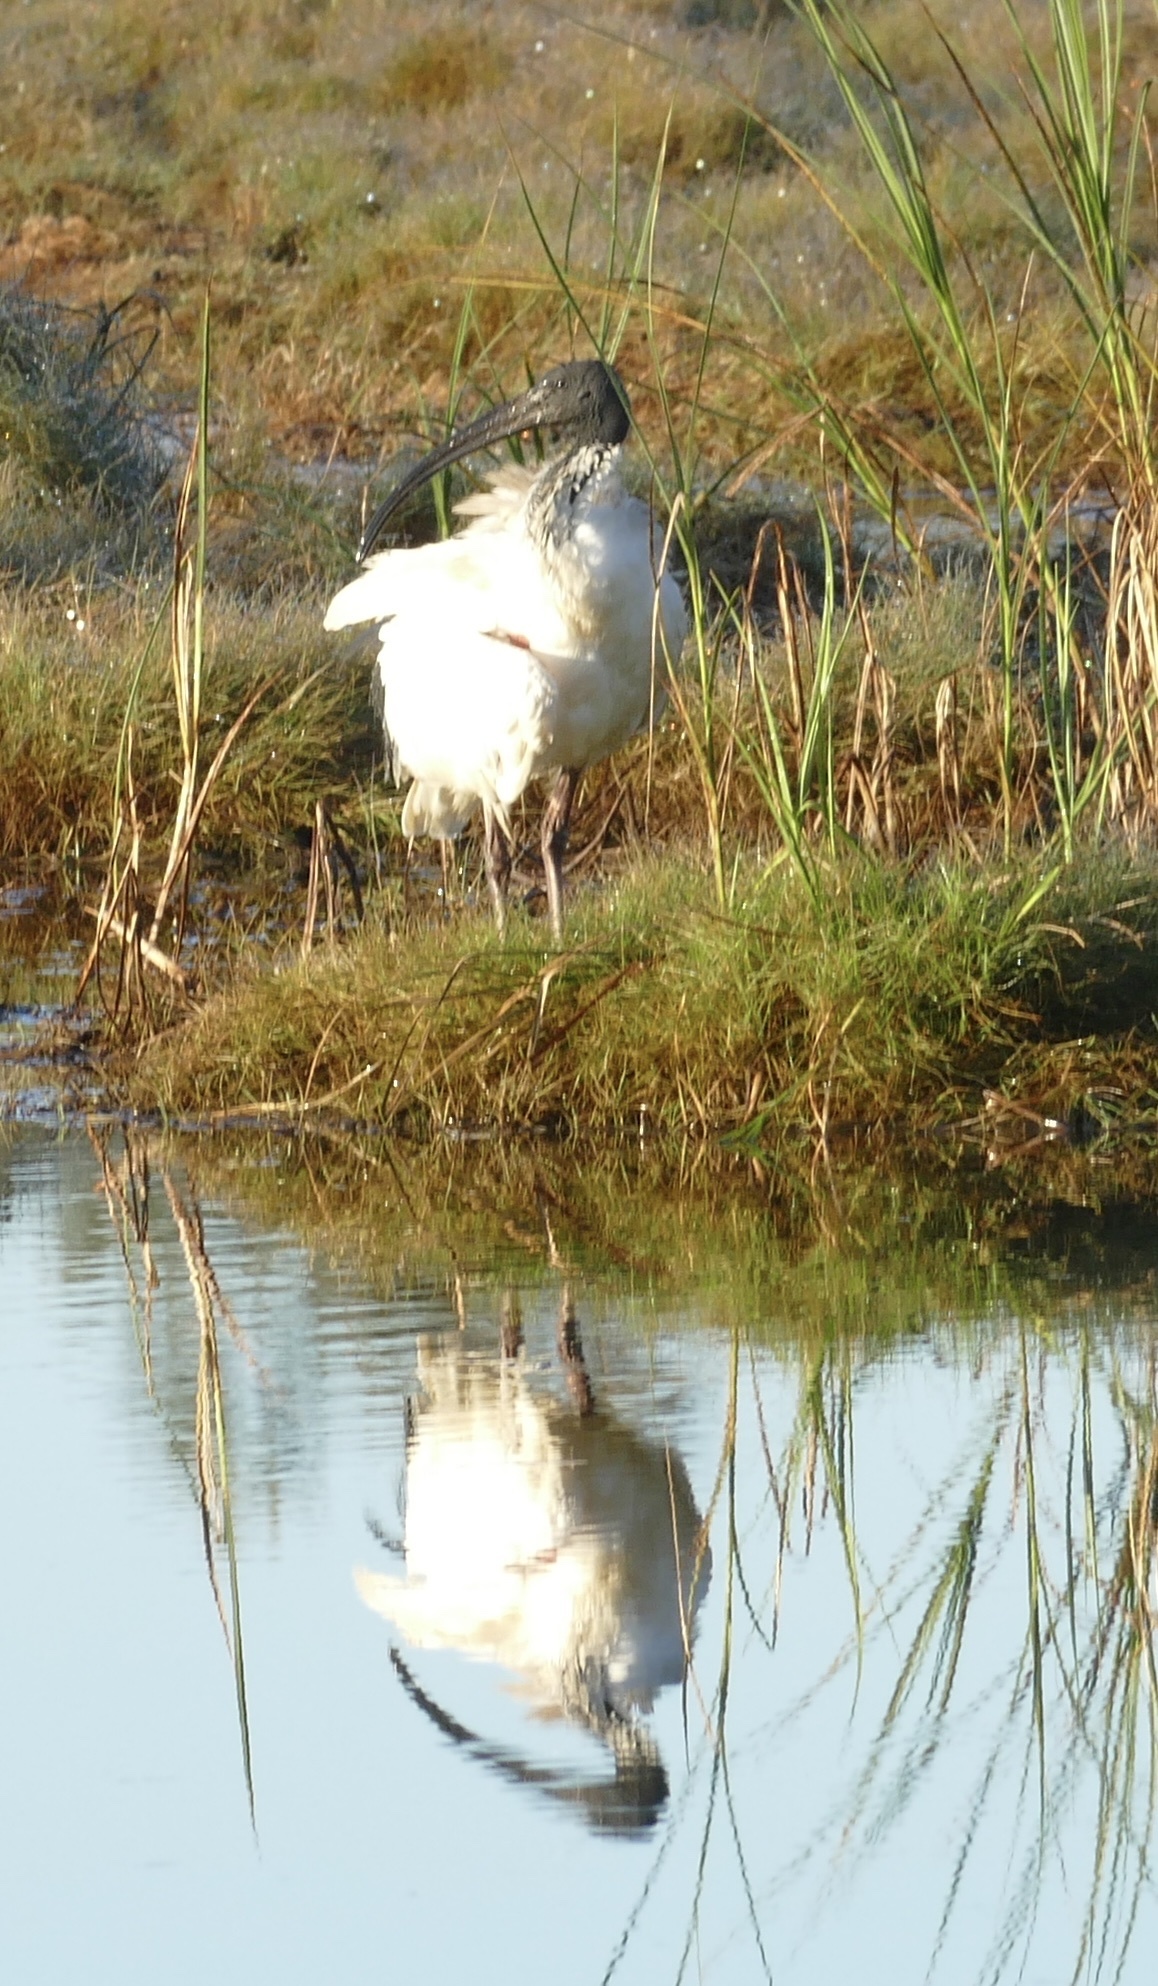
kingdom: Animalia
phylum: Chordata
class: Aves
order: Pelecaniformes
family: Threskiornithidae
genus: Threskiornis
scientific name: Threskiornis molucca
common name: Australian white ibis
